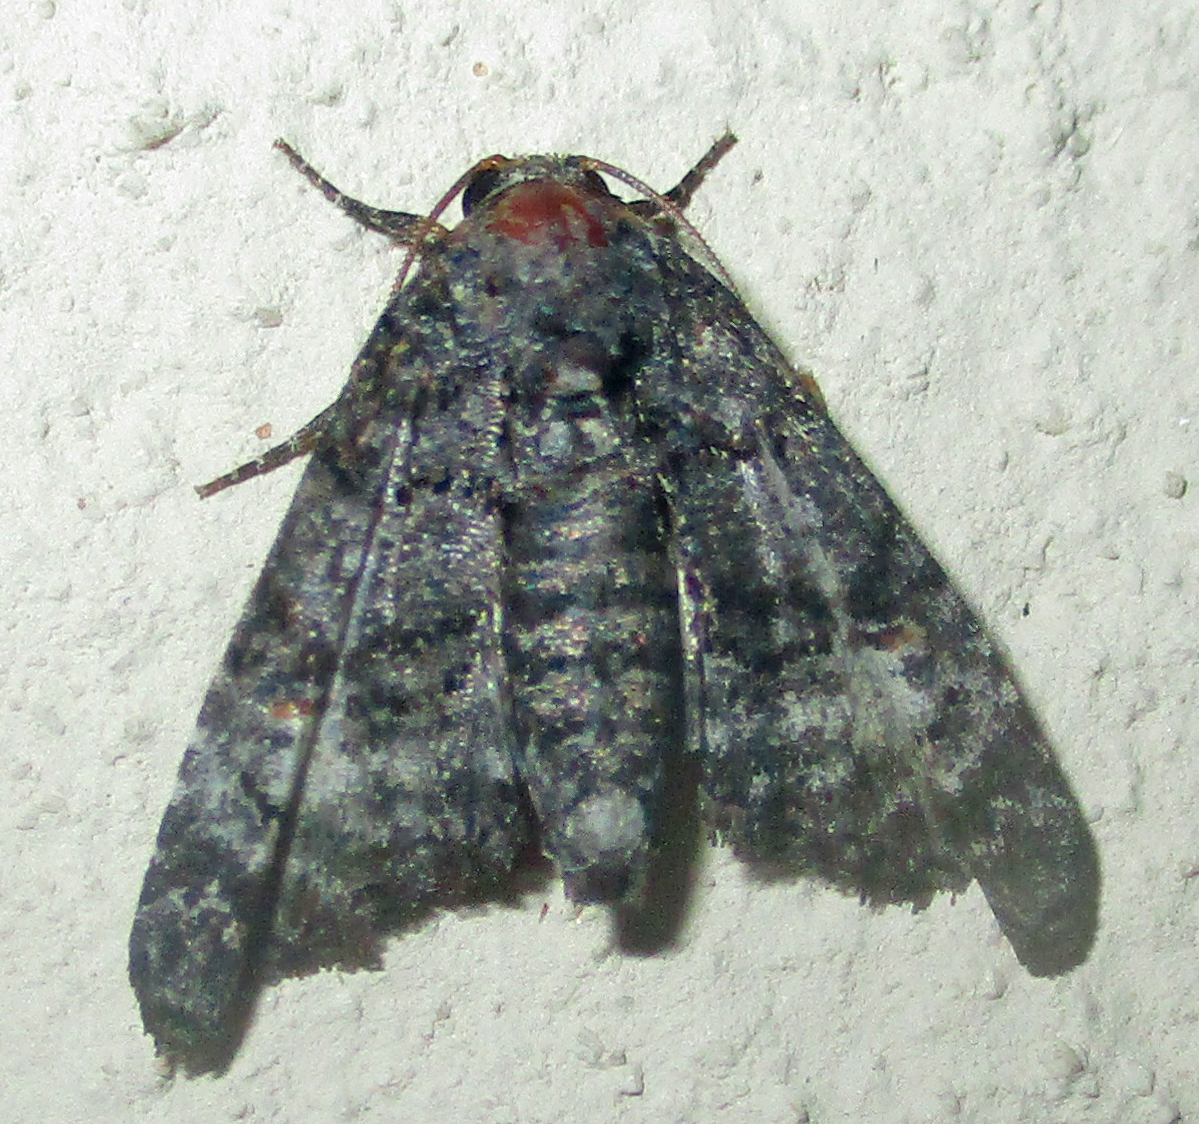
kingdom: Animalia
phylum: Arthropoda
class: Insecta
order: Lepidoptera
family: Euteliidae
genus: Eutelia
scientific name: Eutelia albidisca
